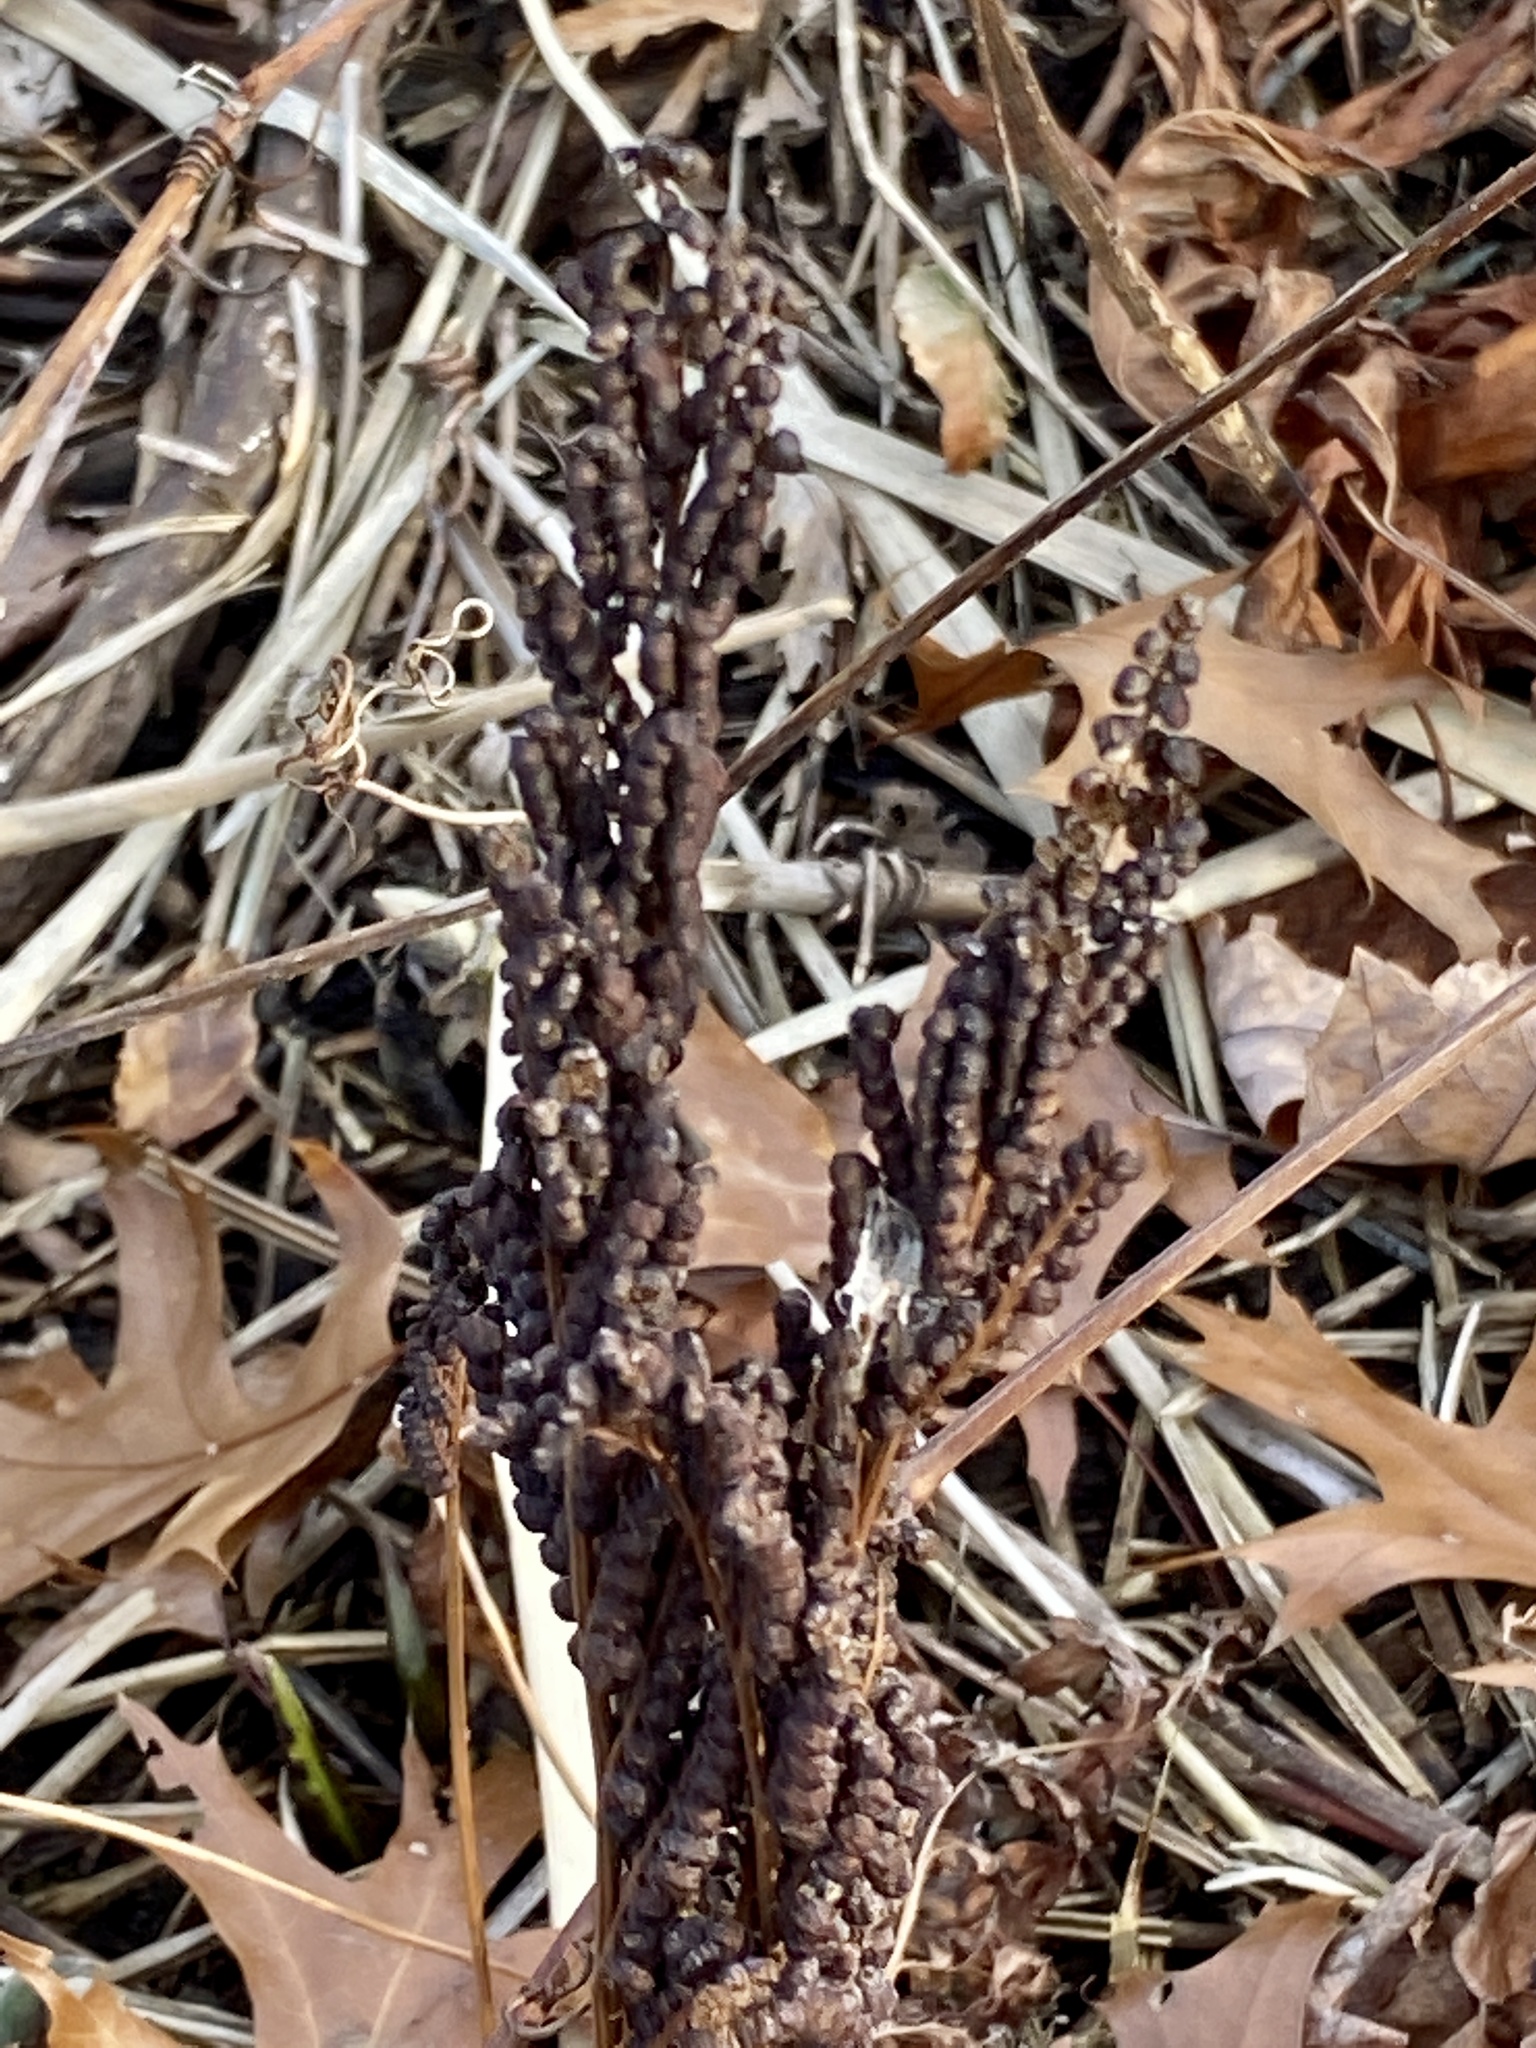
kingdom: Plantae
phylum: Tracheophyta
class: Polypodiopsida
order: Polypodiales
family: Onocleaceae
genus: Onoclea
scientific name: Onoclea sensibilis
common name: Sensitive fern
